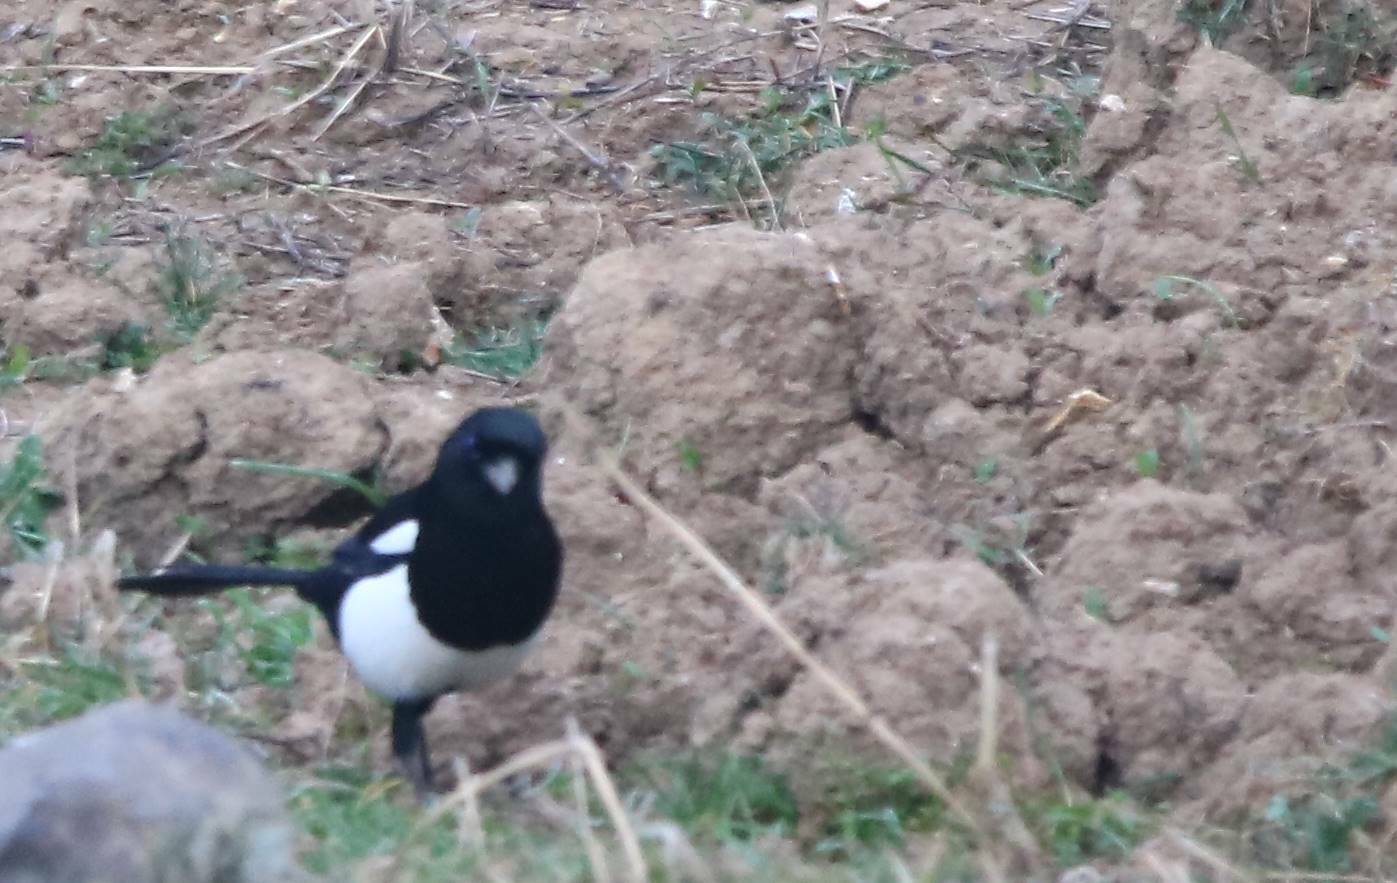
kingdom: Animalia
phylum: Chordata
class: Aves
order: Passeriformes
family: Corvidae
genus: Pica
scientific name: Pica mauritanica
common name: Maghreb magpie
